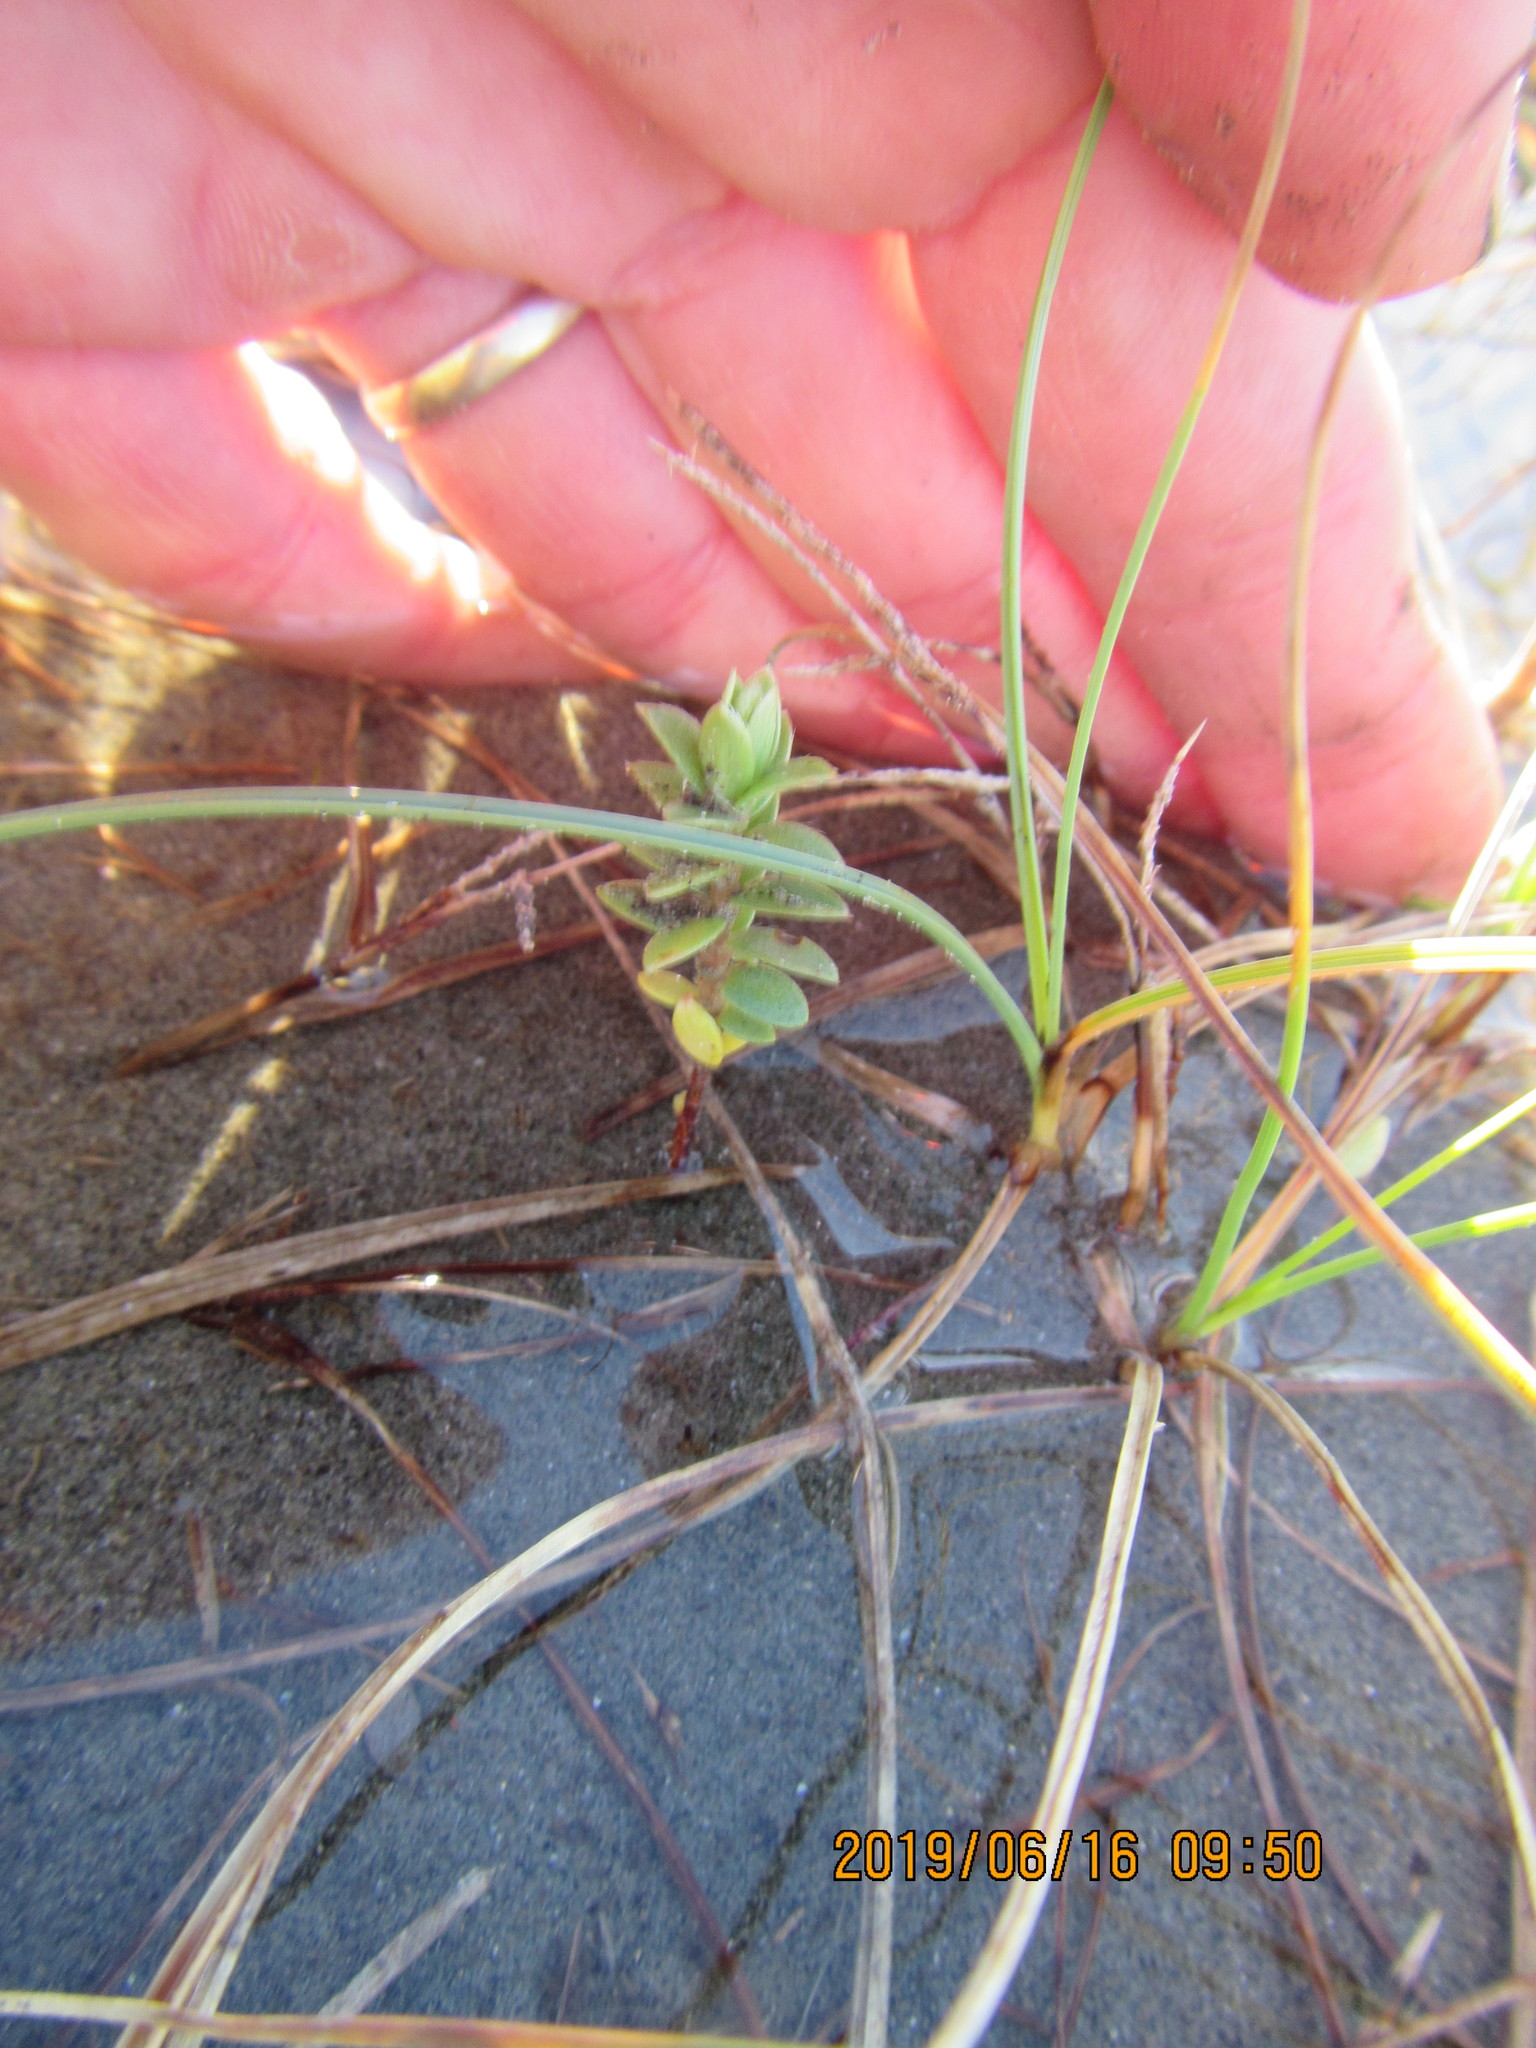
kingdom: Plantae
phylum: Tracheophyta
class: Magnoliopsida
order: Malvales
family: Thymelaeaceae
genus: Pimelea
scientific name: Pimelea villosa
